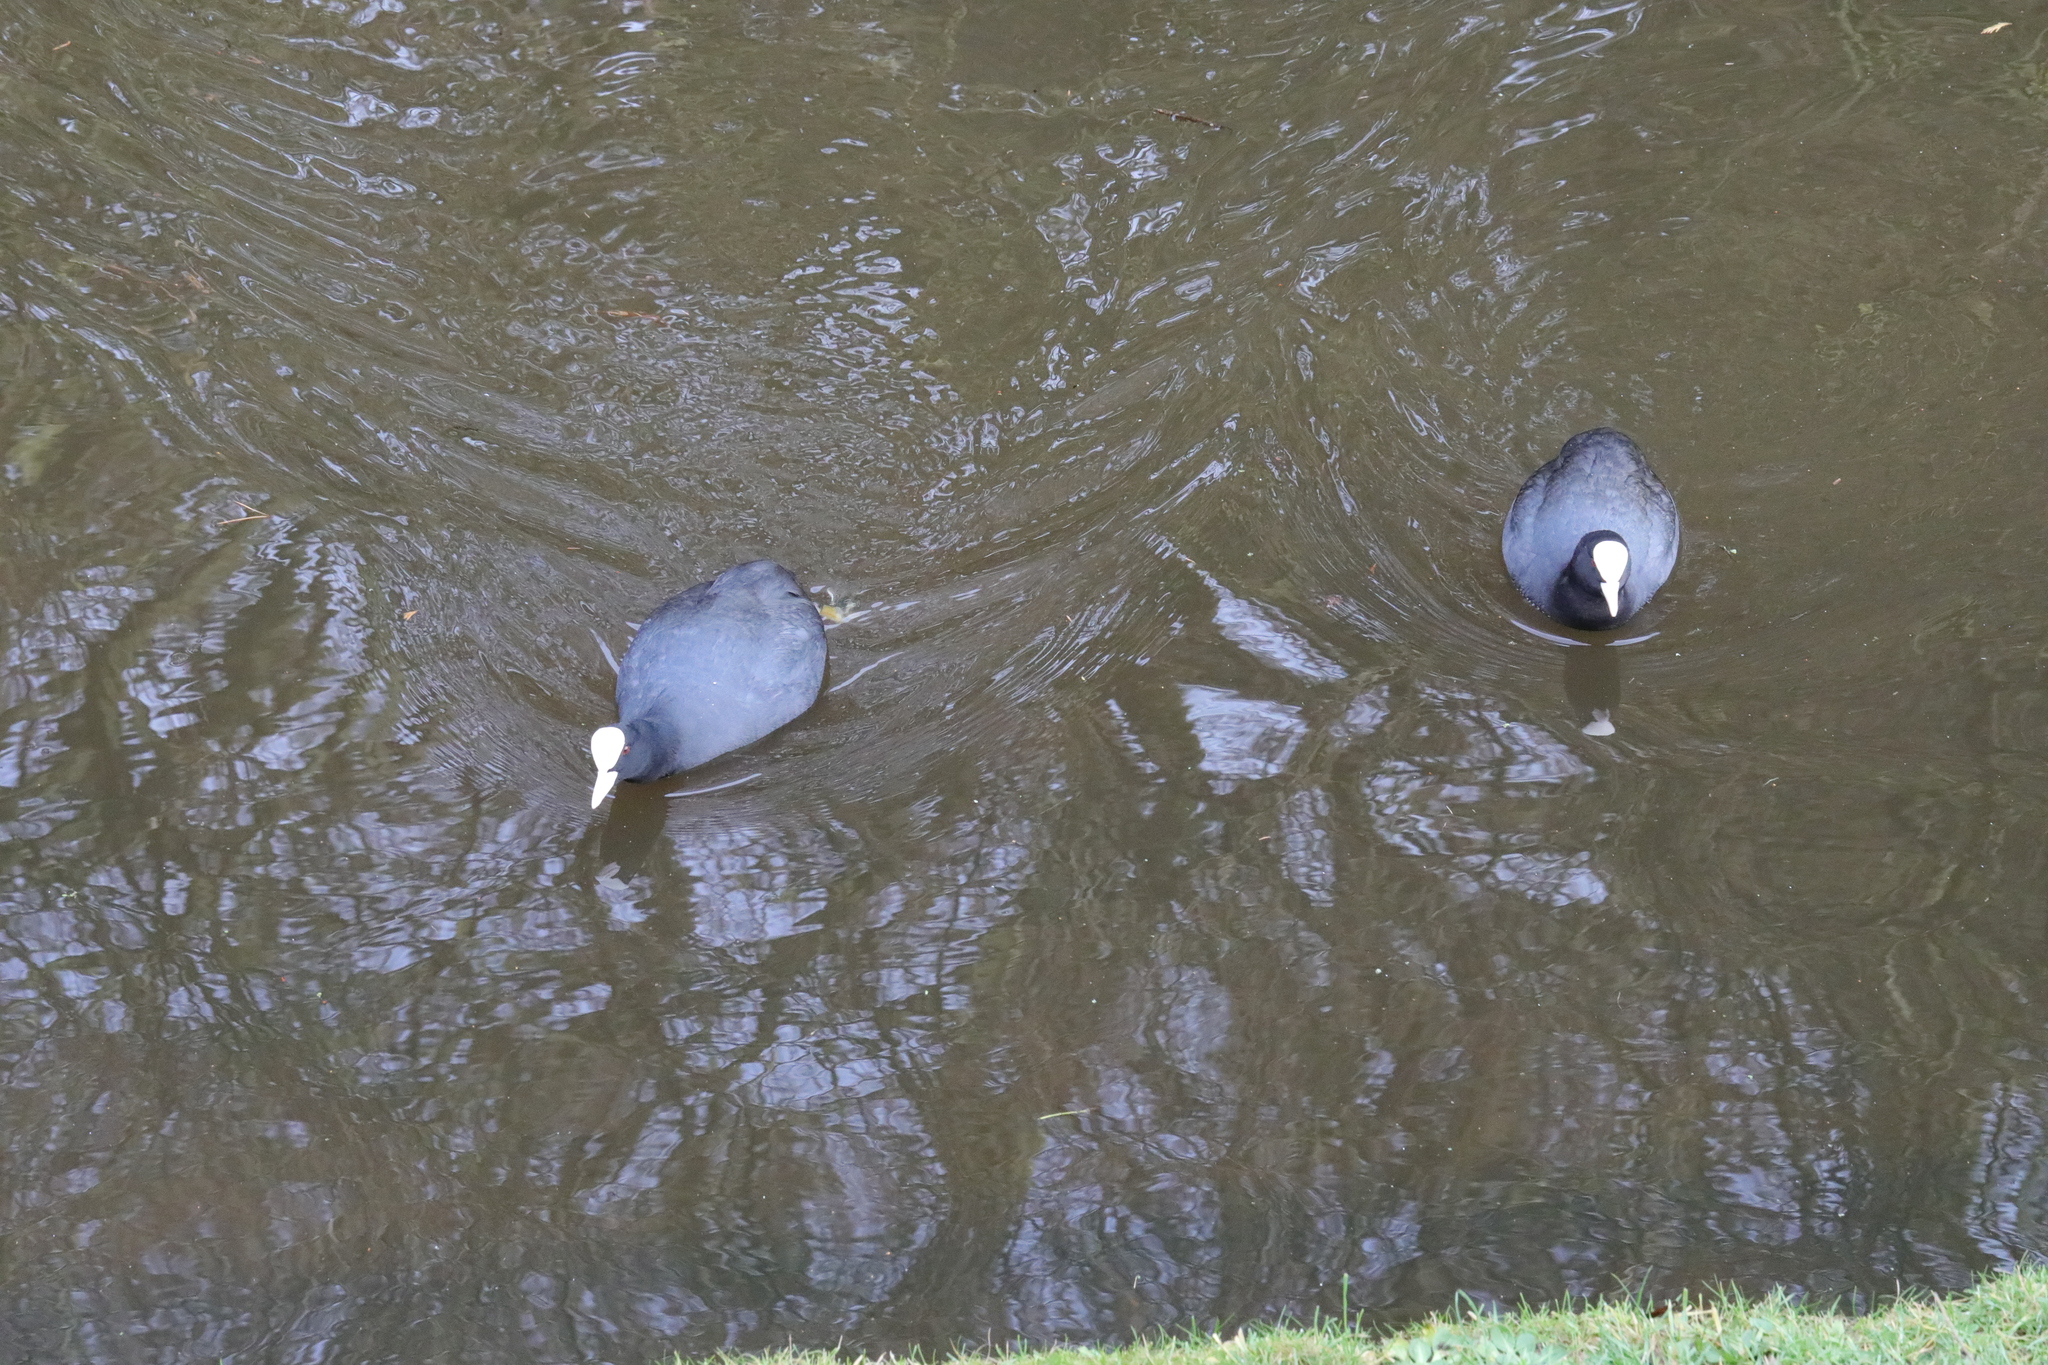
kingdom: Animalia
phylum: Chordata
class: Aves
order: Gruiformes
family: Rallidae
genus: Fulica
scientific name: Fulica atra
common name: Eurasian coot
